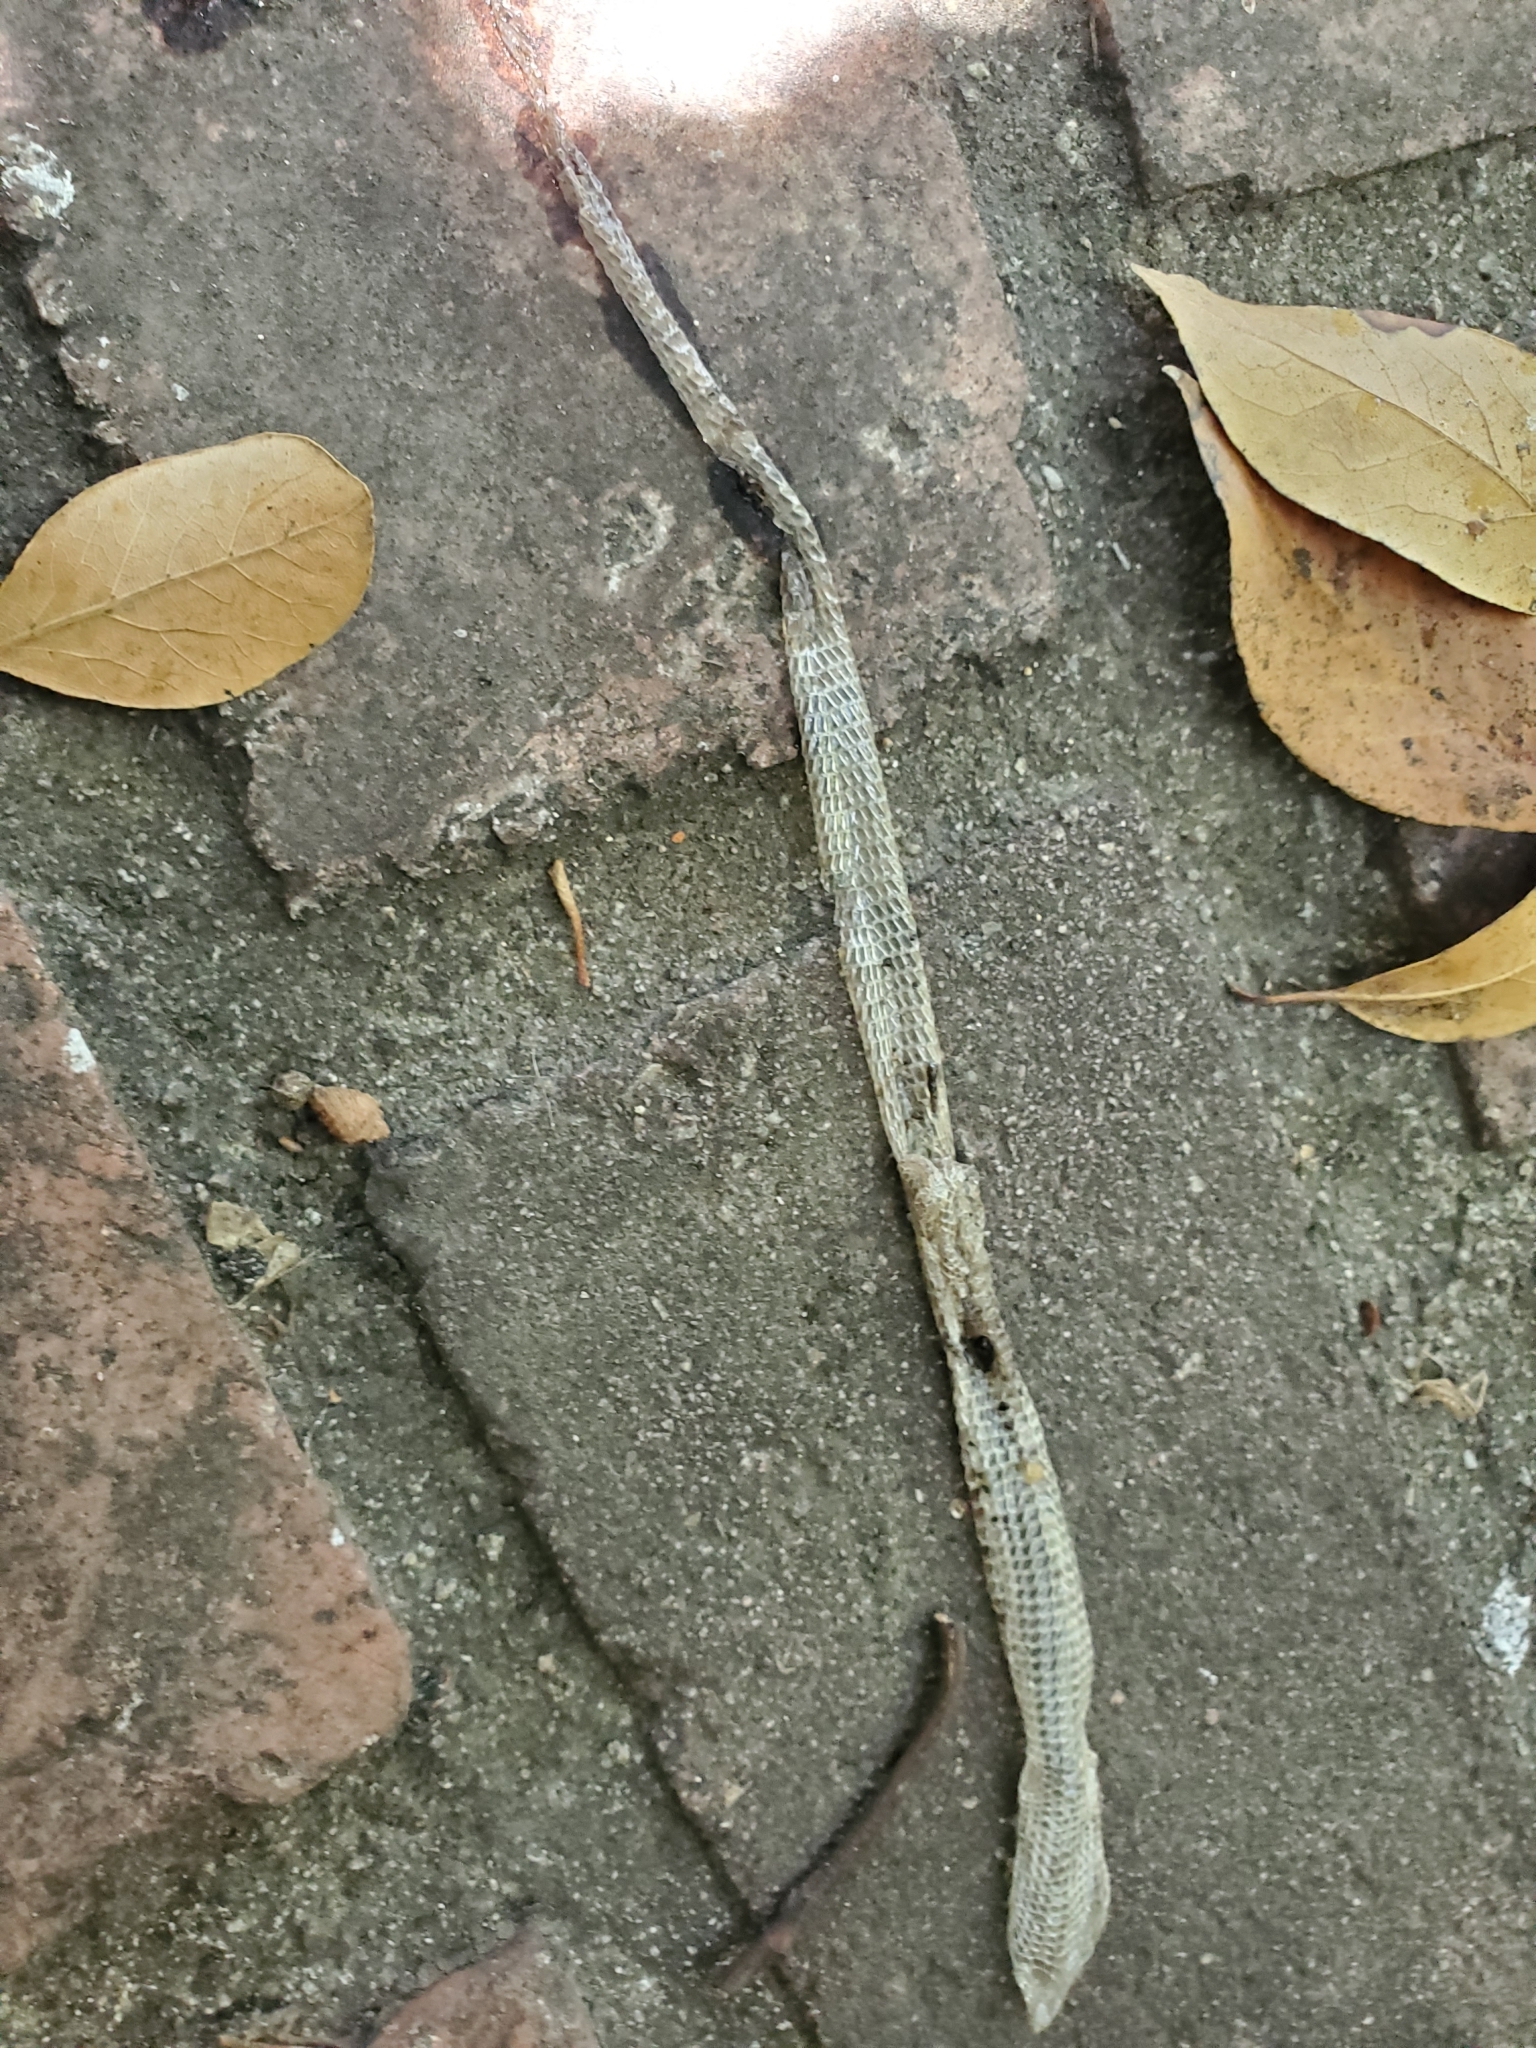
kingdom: Animalia
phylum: Chordata
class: Squamata
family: Anguidae
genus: Elgaria
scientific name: Elgaria multicarinata
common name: Southern alligator lizard
